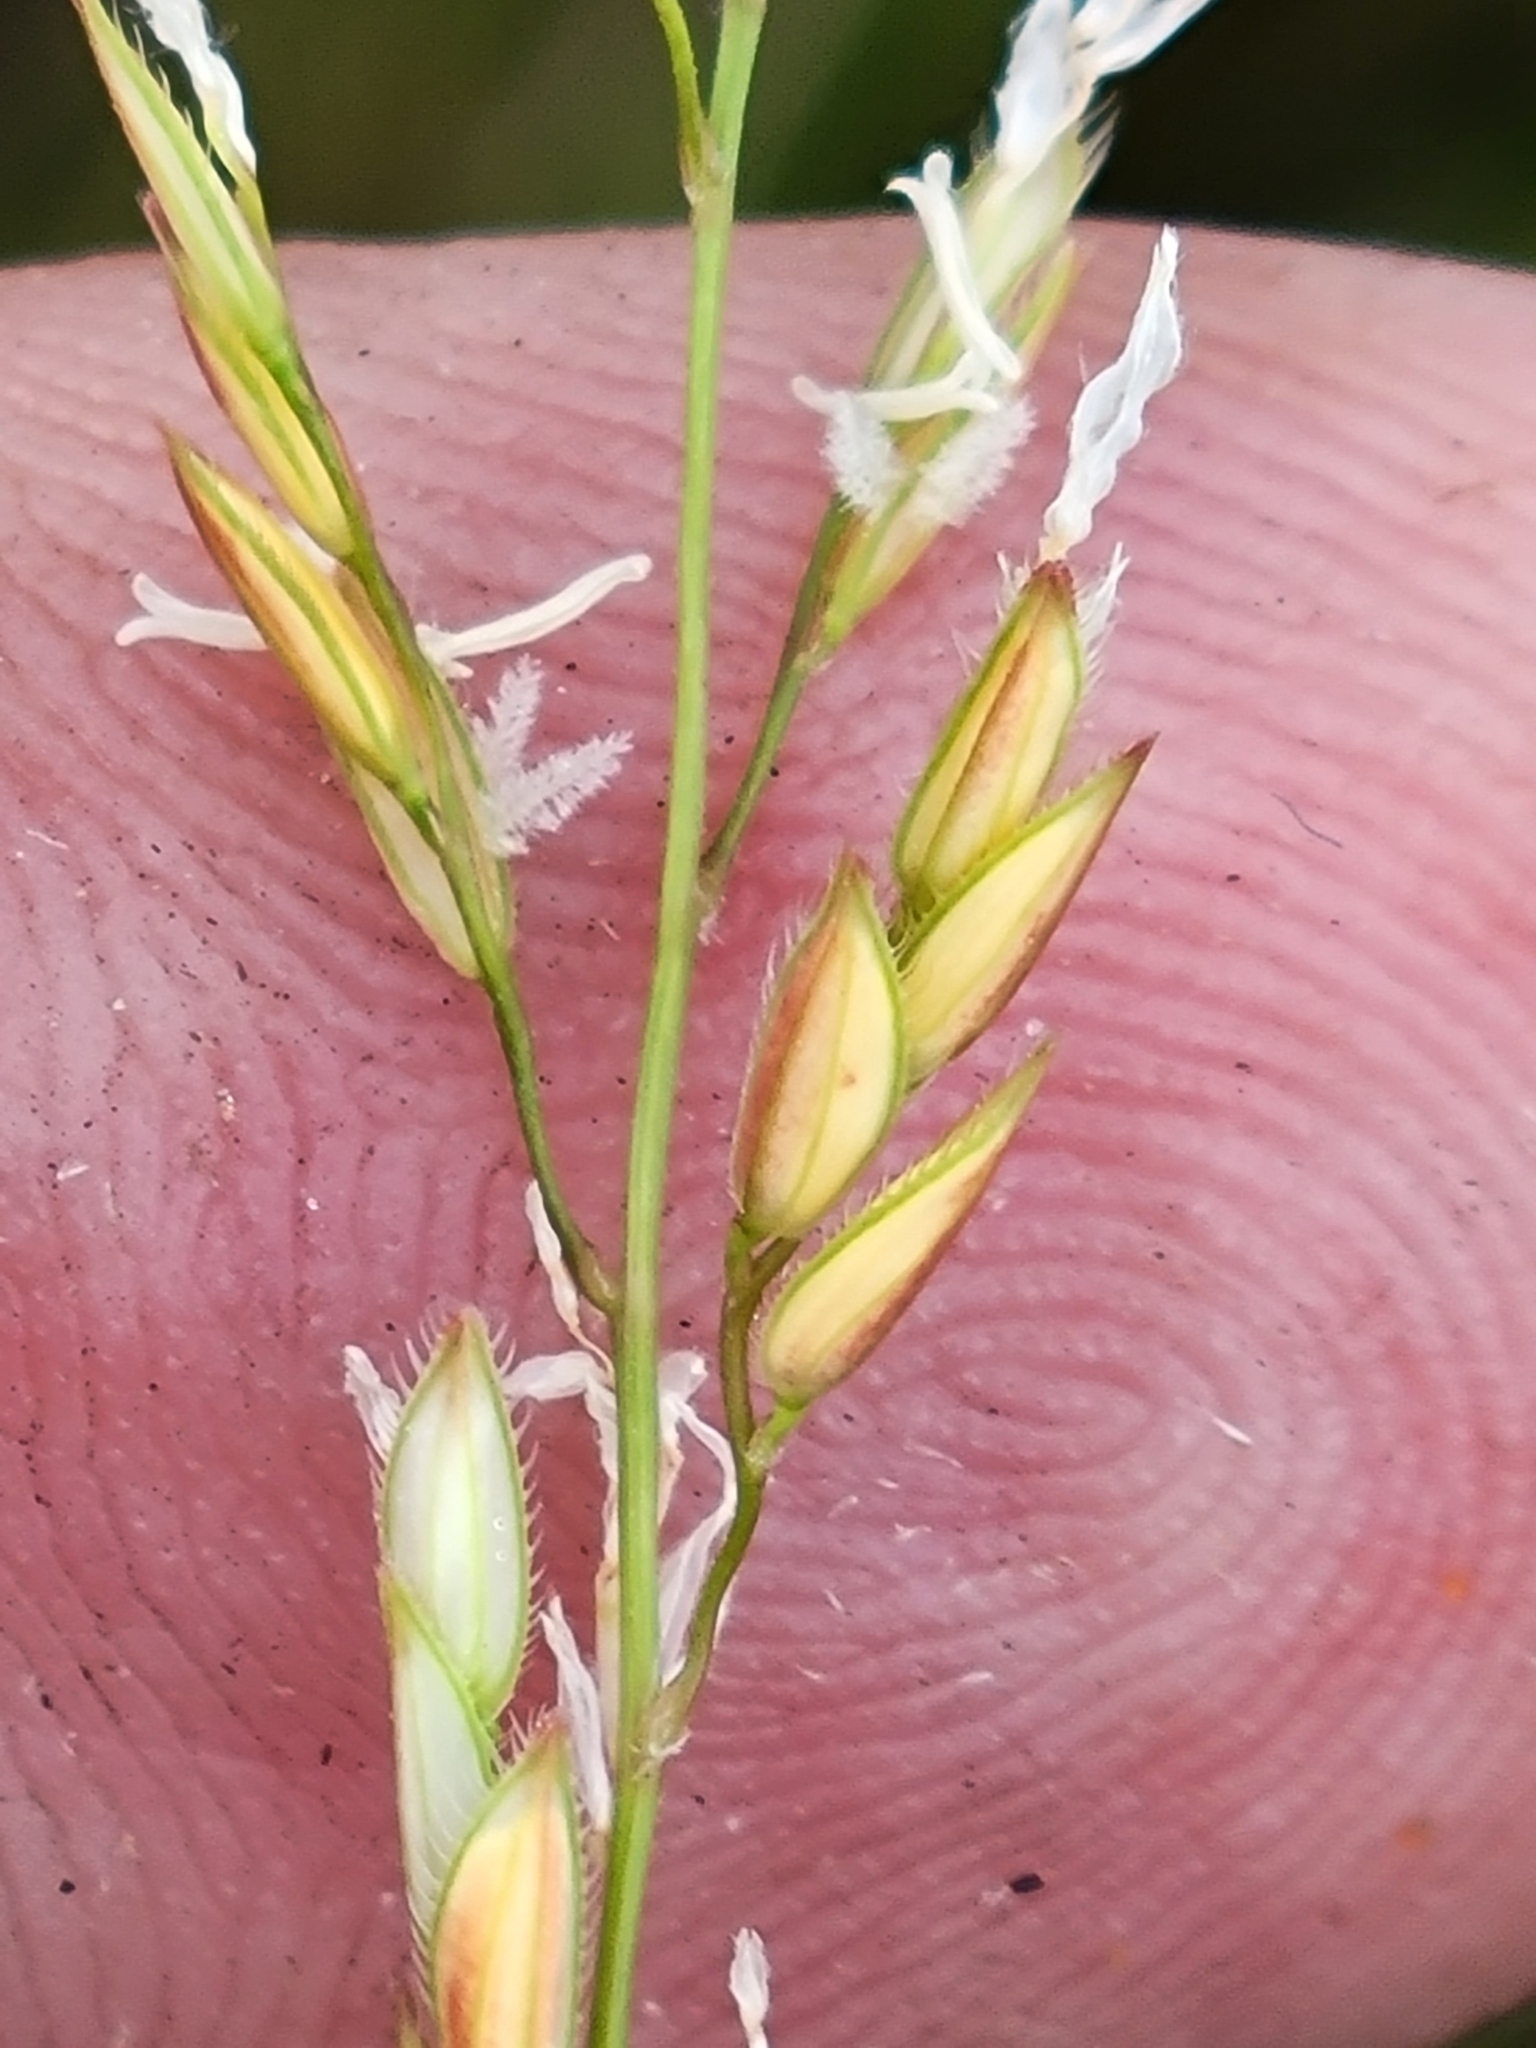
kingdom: Plantae
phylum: Tracheophyta
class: Liliopsida
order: Poales
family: Poaceae
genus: Leersia
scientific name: Leersia hexandra
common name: Southern cut grass
